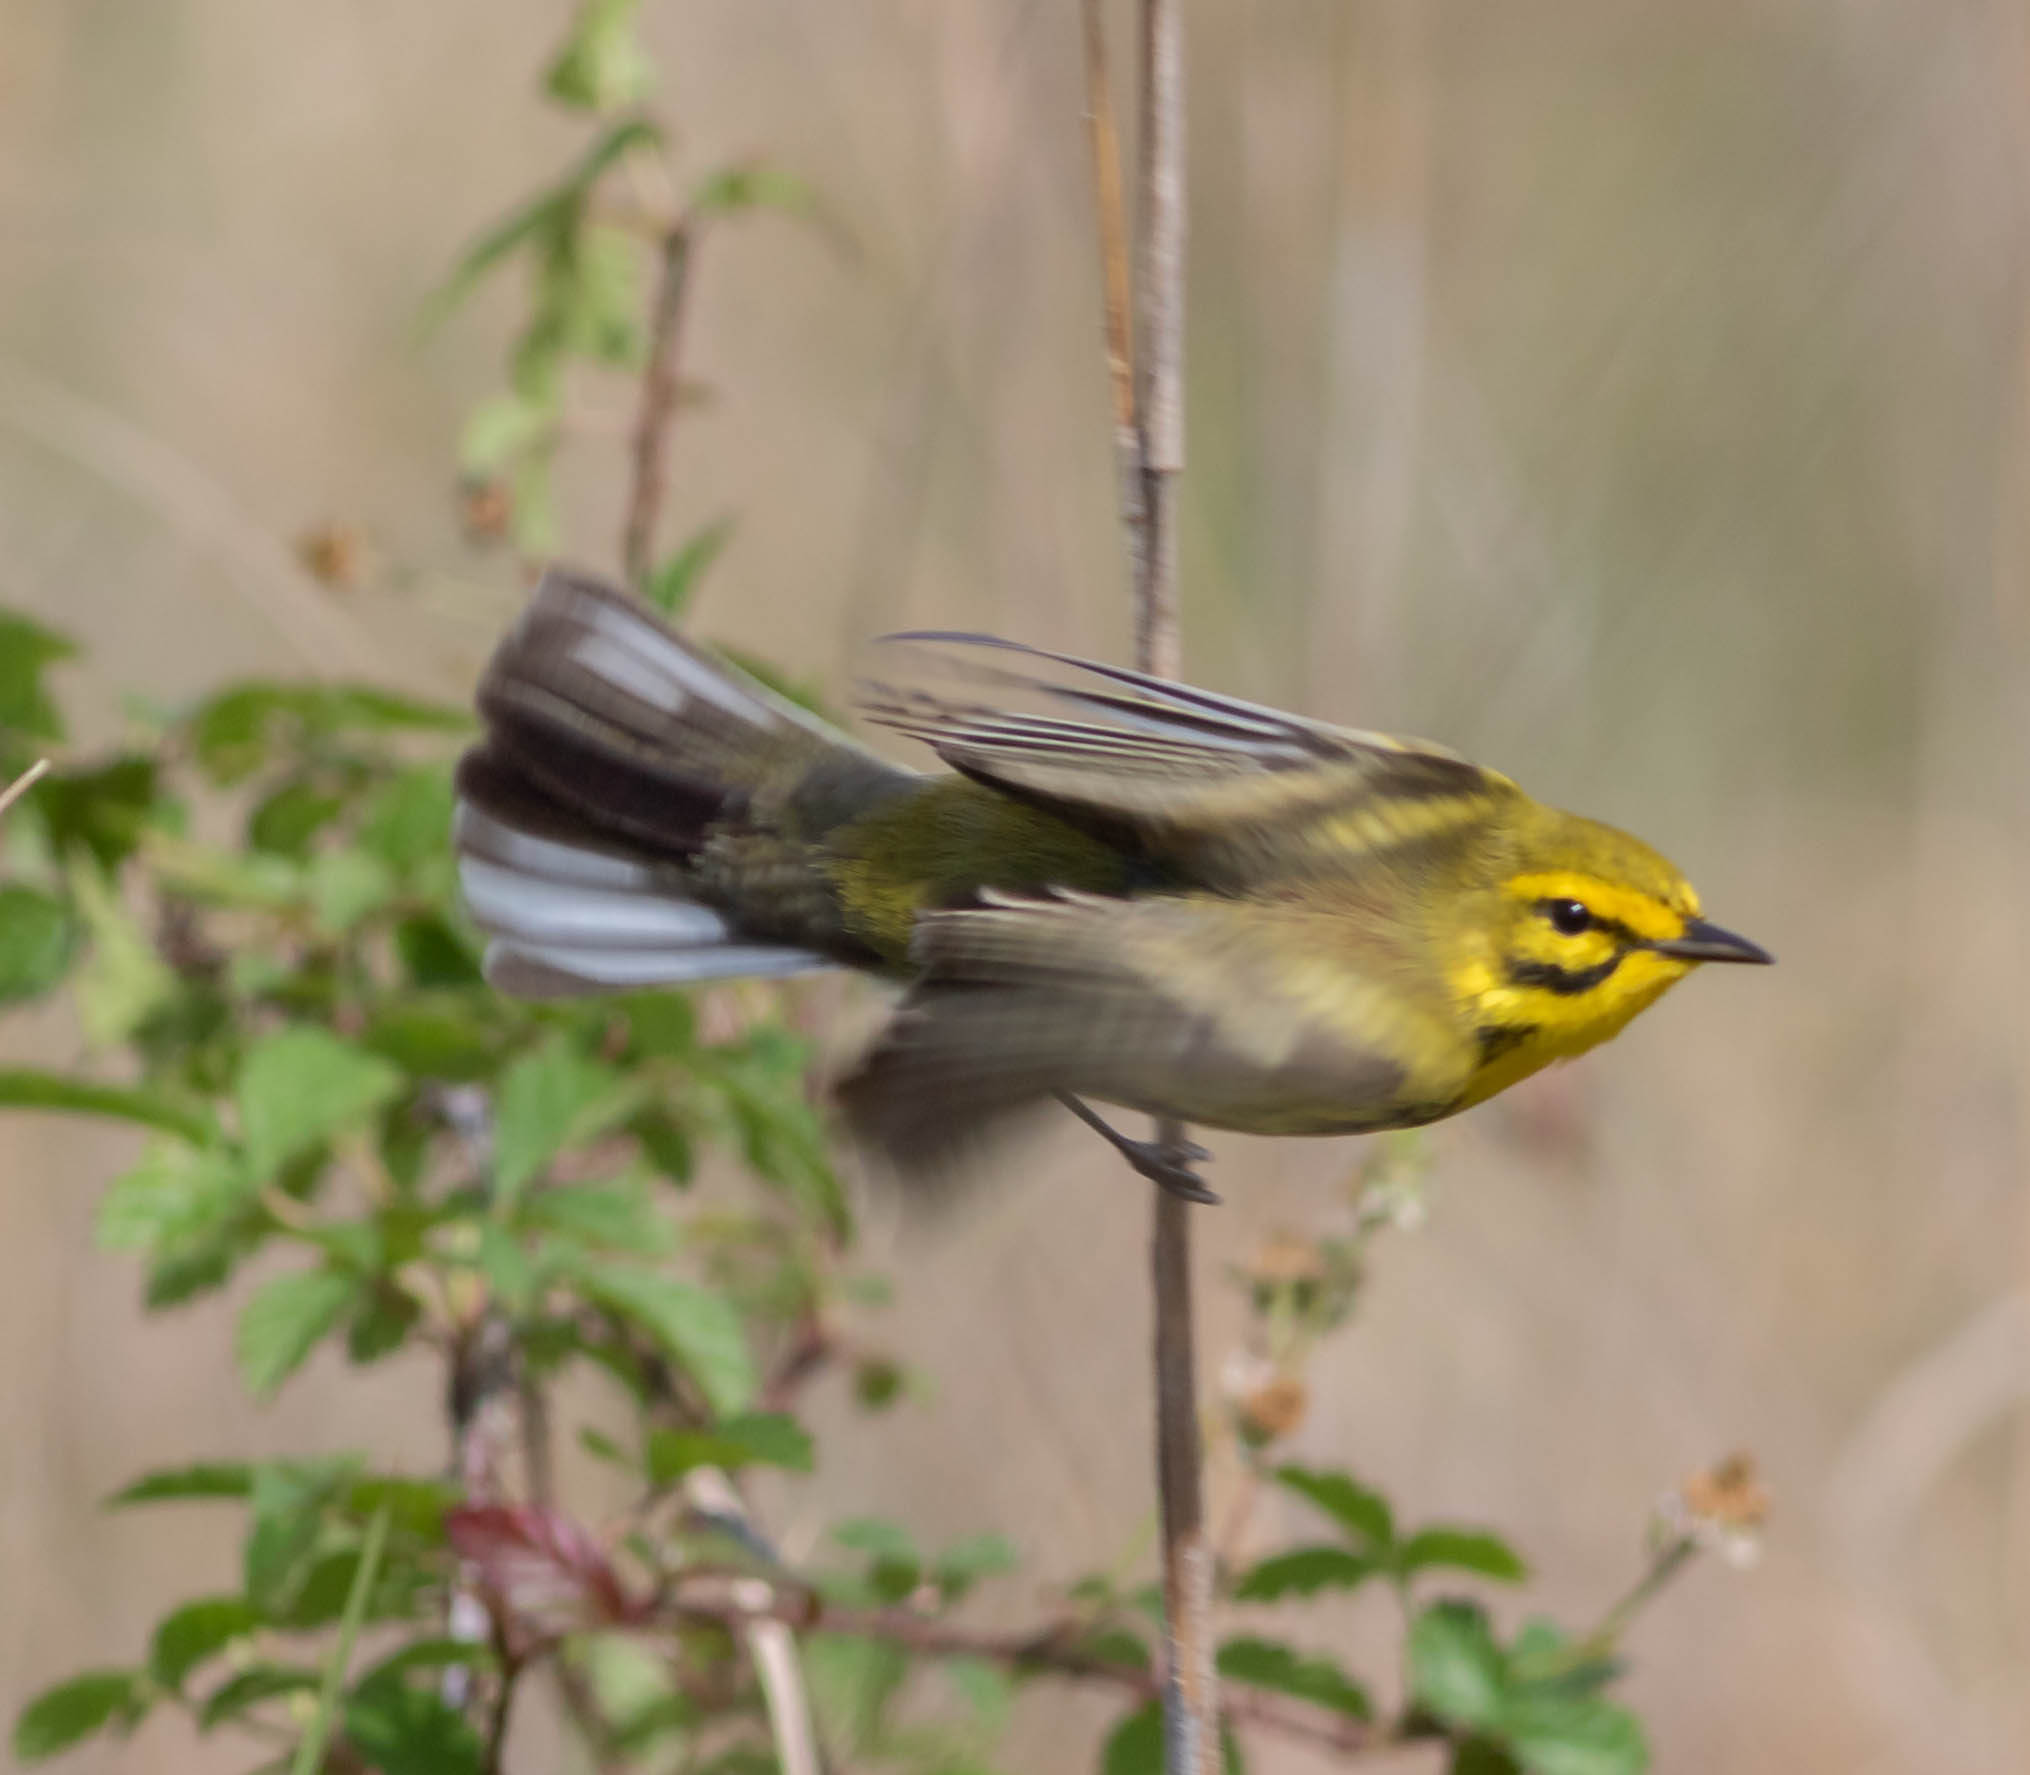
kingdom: Animalia
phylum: Chordata
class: Aves
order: Passeriformes
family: Parulidae
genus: Setophaga
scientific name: Setophaga discolor
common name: Prairie warbler
